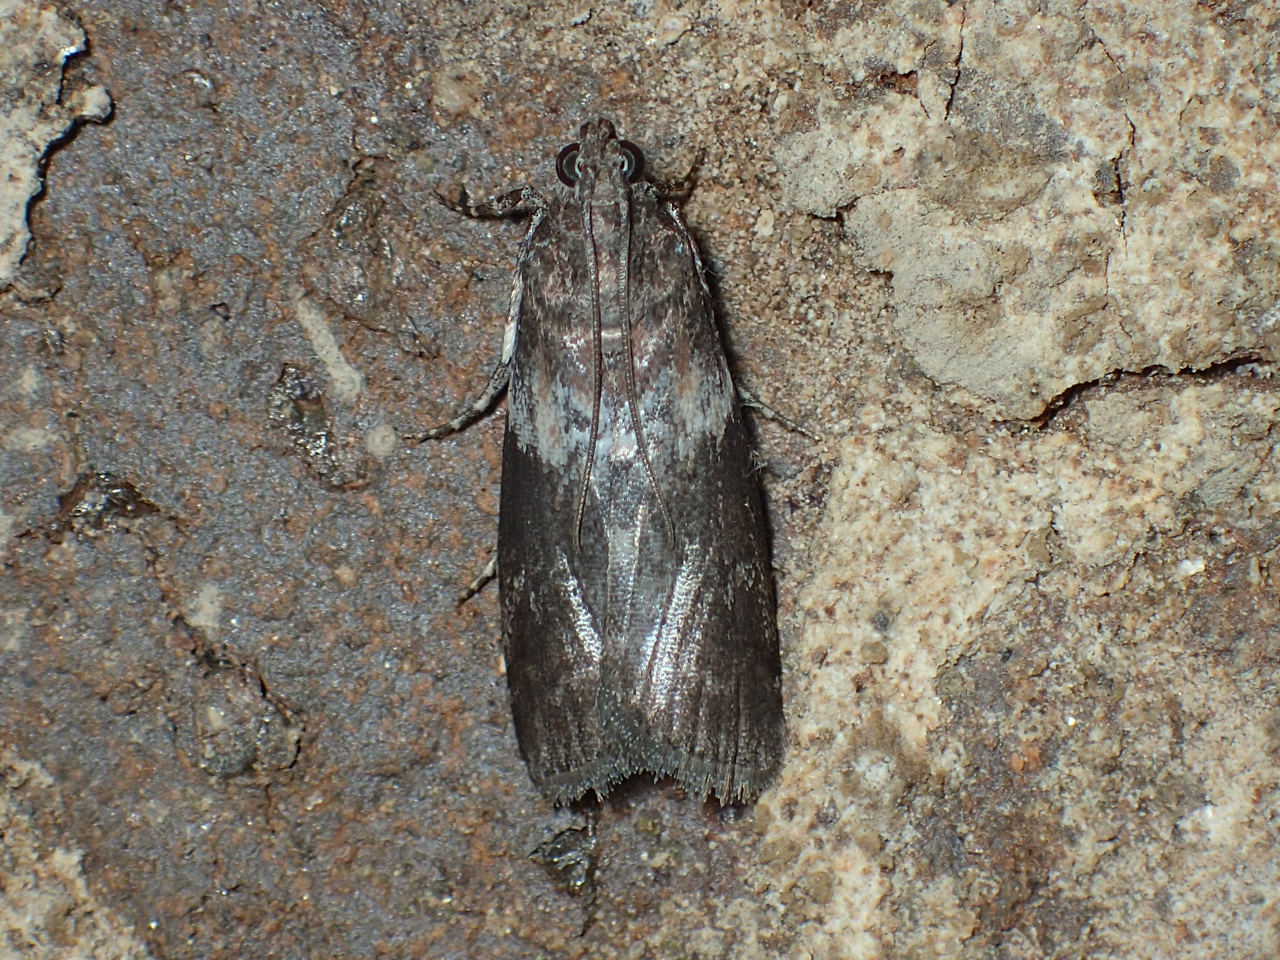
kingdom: Animalia
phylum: Arthropoda
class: Insecta
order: Lepidoptera
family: Pyralidae
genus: Salebriaria
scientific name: Salebriaria rufimaculatella
